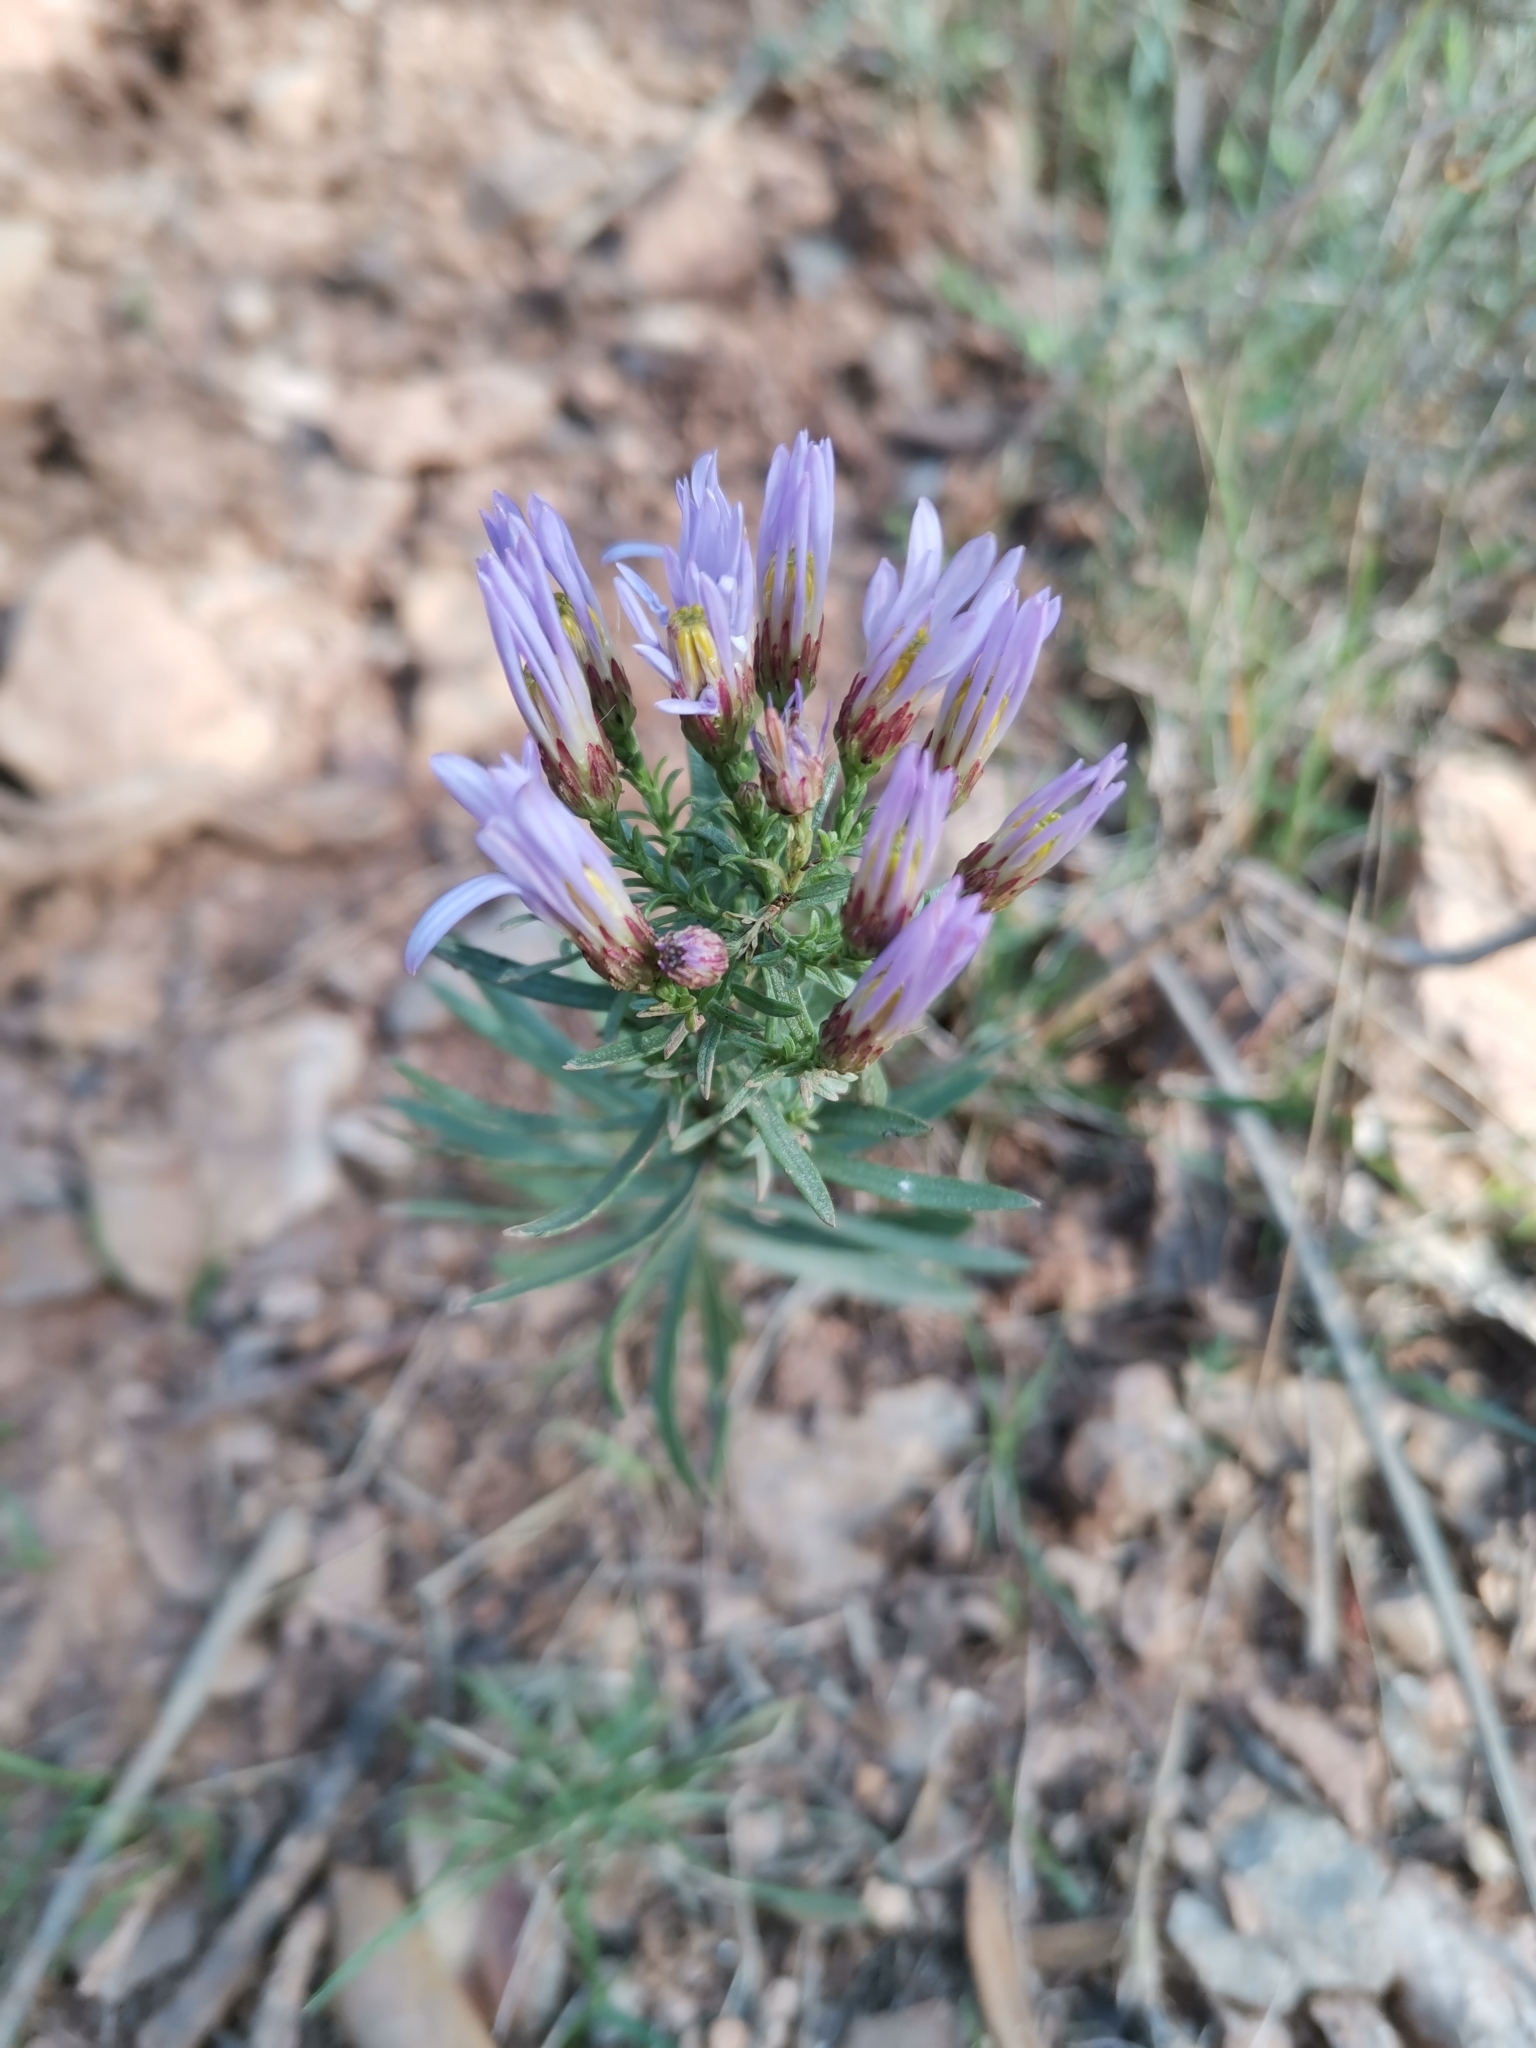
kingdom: Plantae
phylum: Tracheophyta
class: Magnoliopsida
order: Asterales
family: Asteraceae
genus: Galatella
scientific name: Galatella sedifolia
